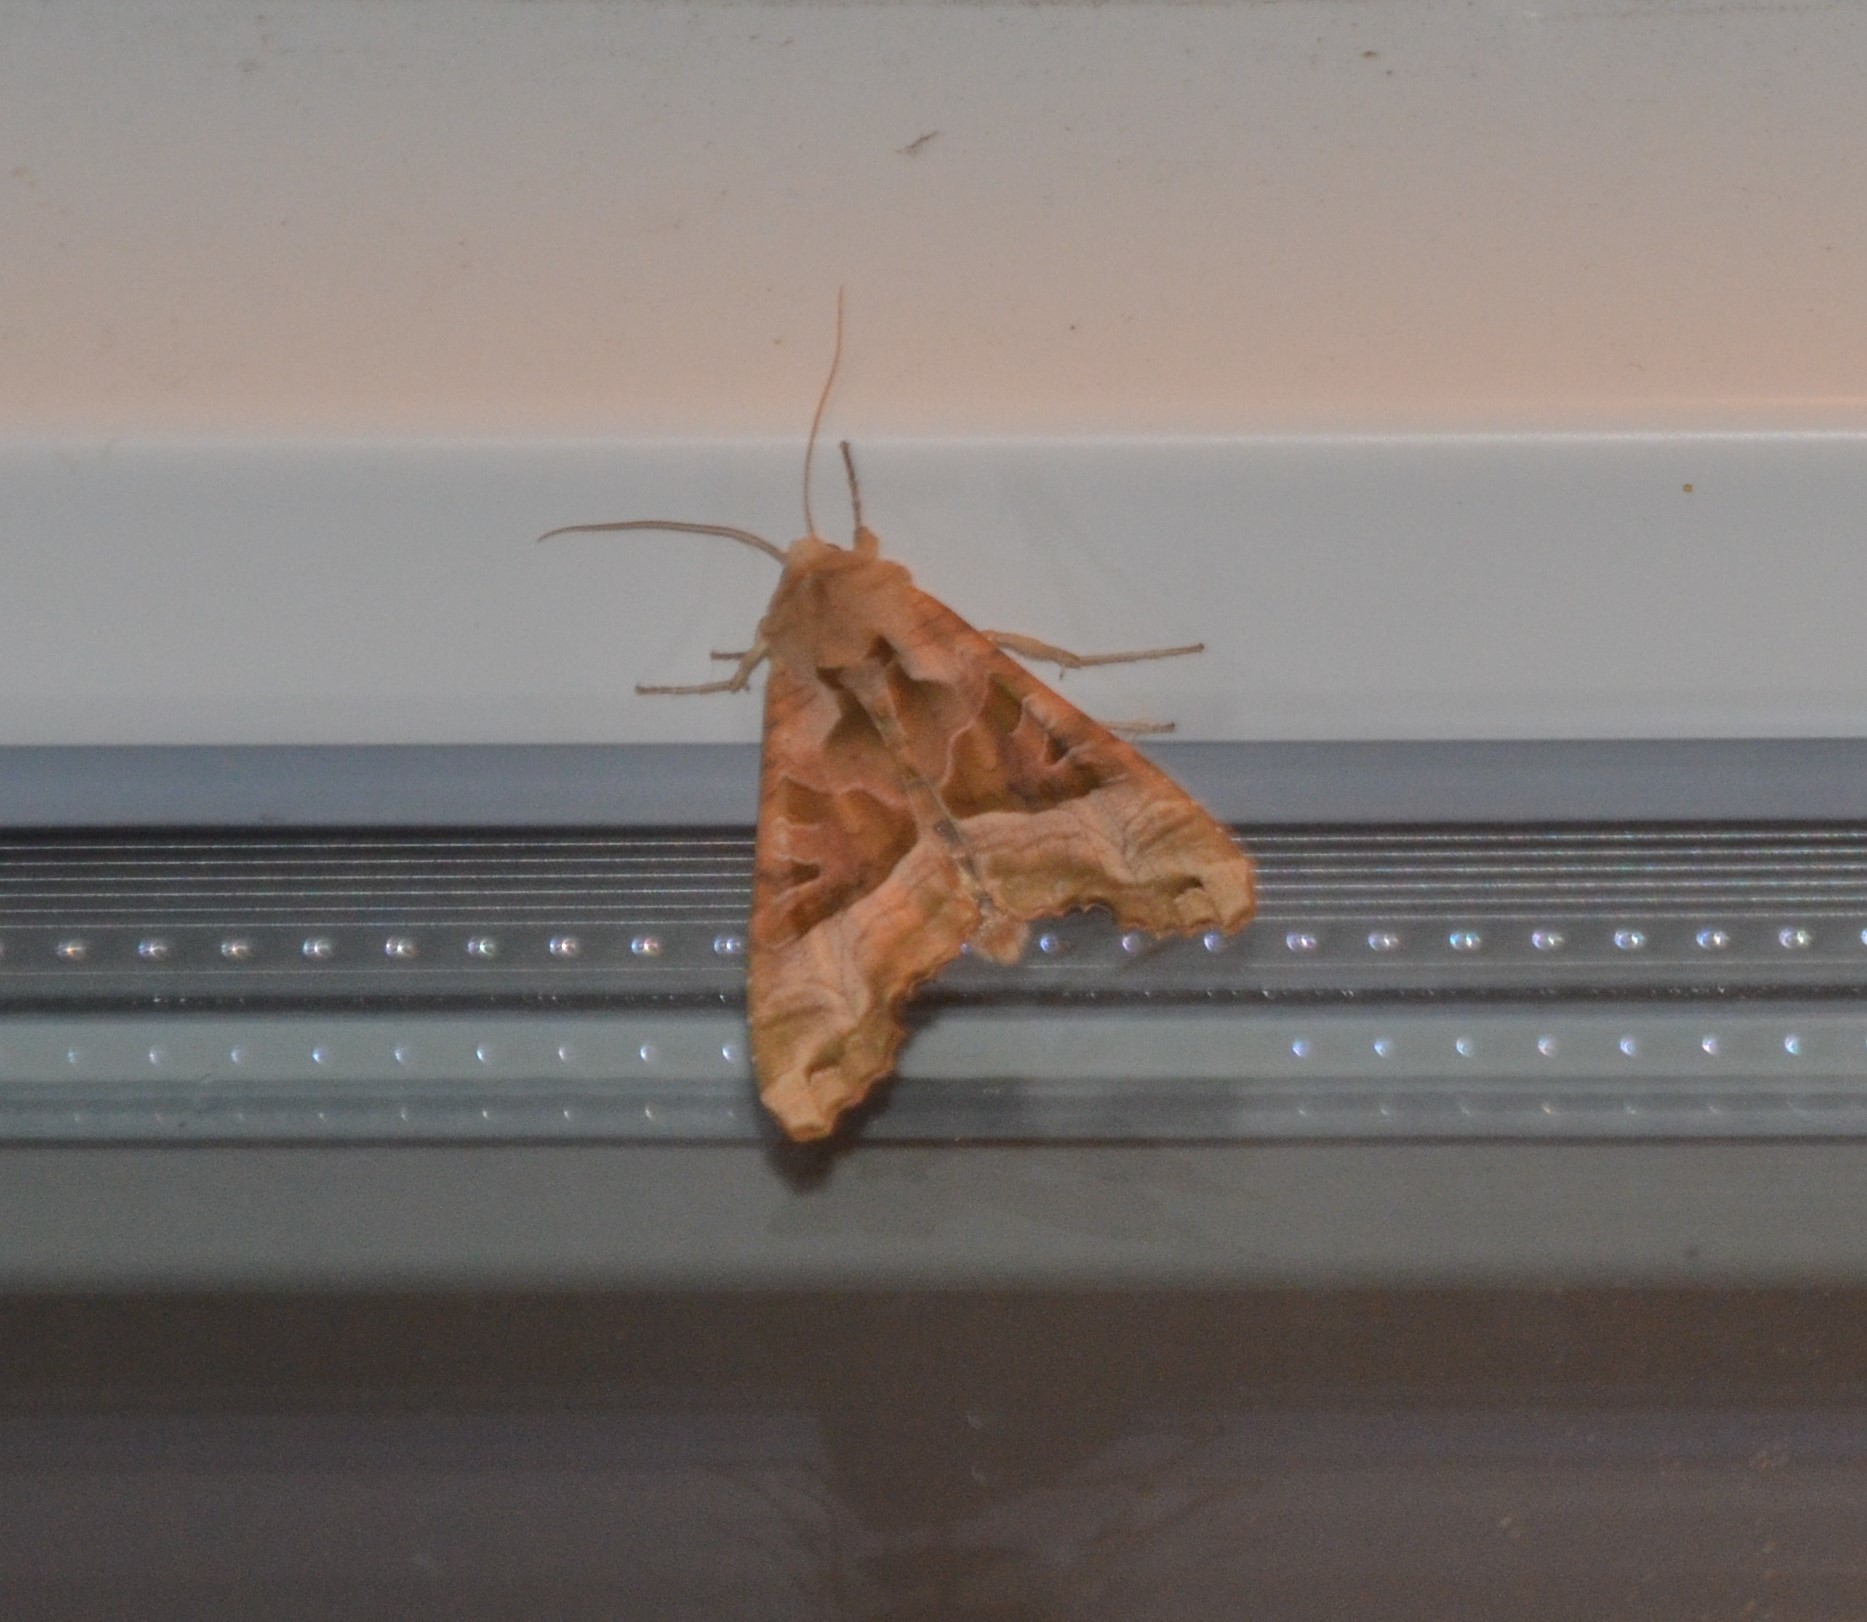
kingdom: Animalia
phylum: Arthropoda
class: Insecta
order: Lepidoptera
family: Noctuidae
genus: Phlogophora
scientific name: Phlogophora meticulosa
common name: Angle shades
